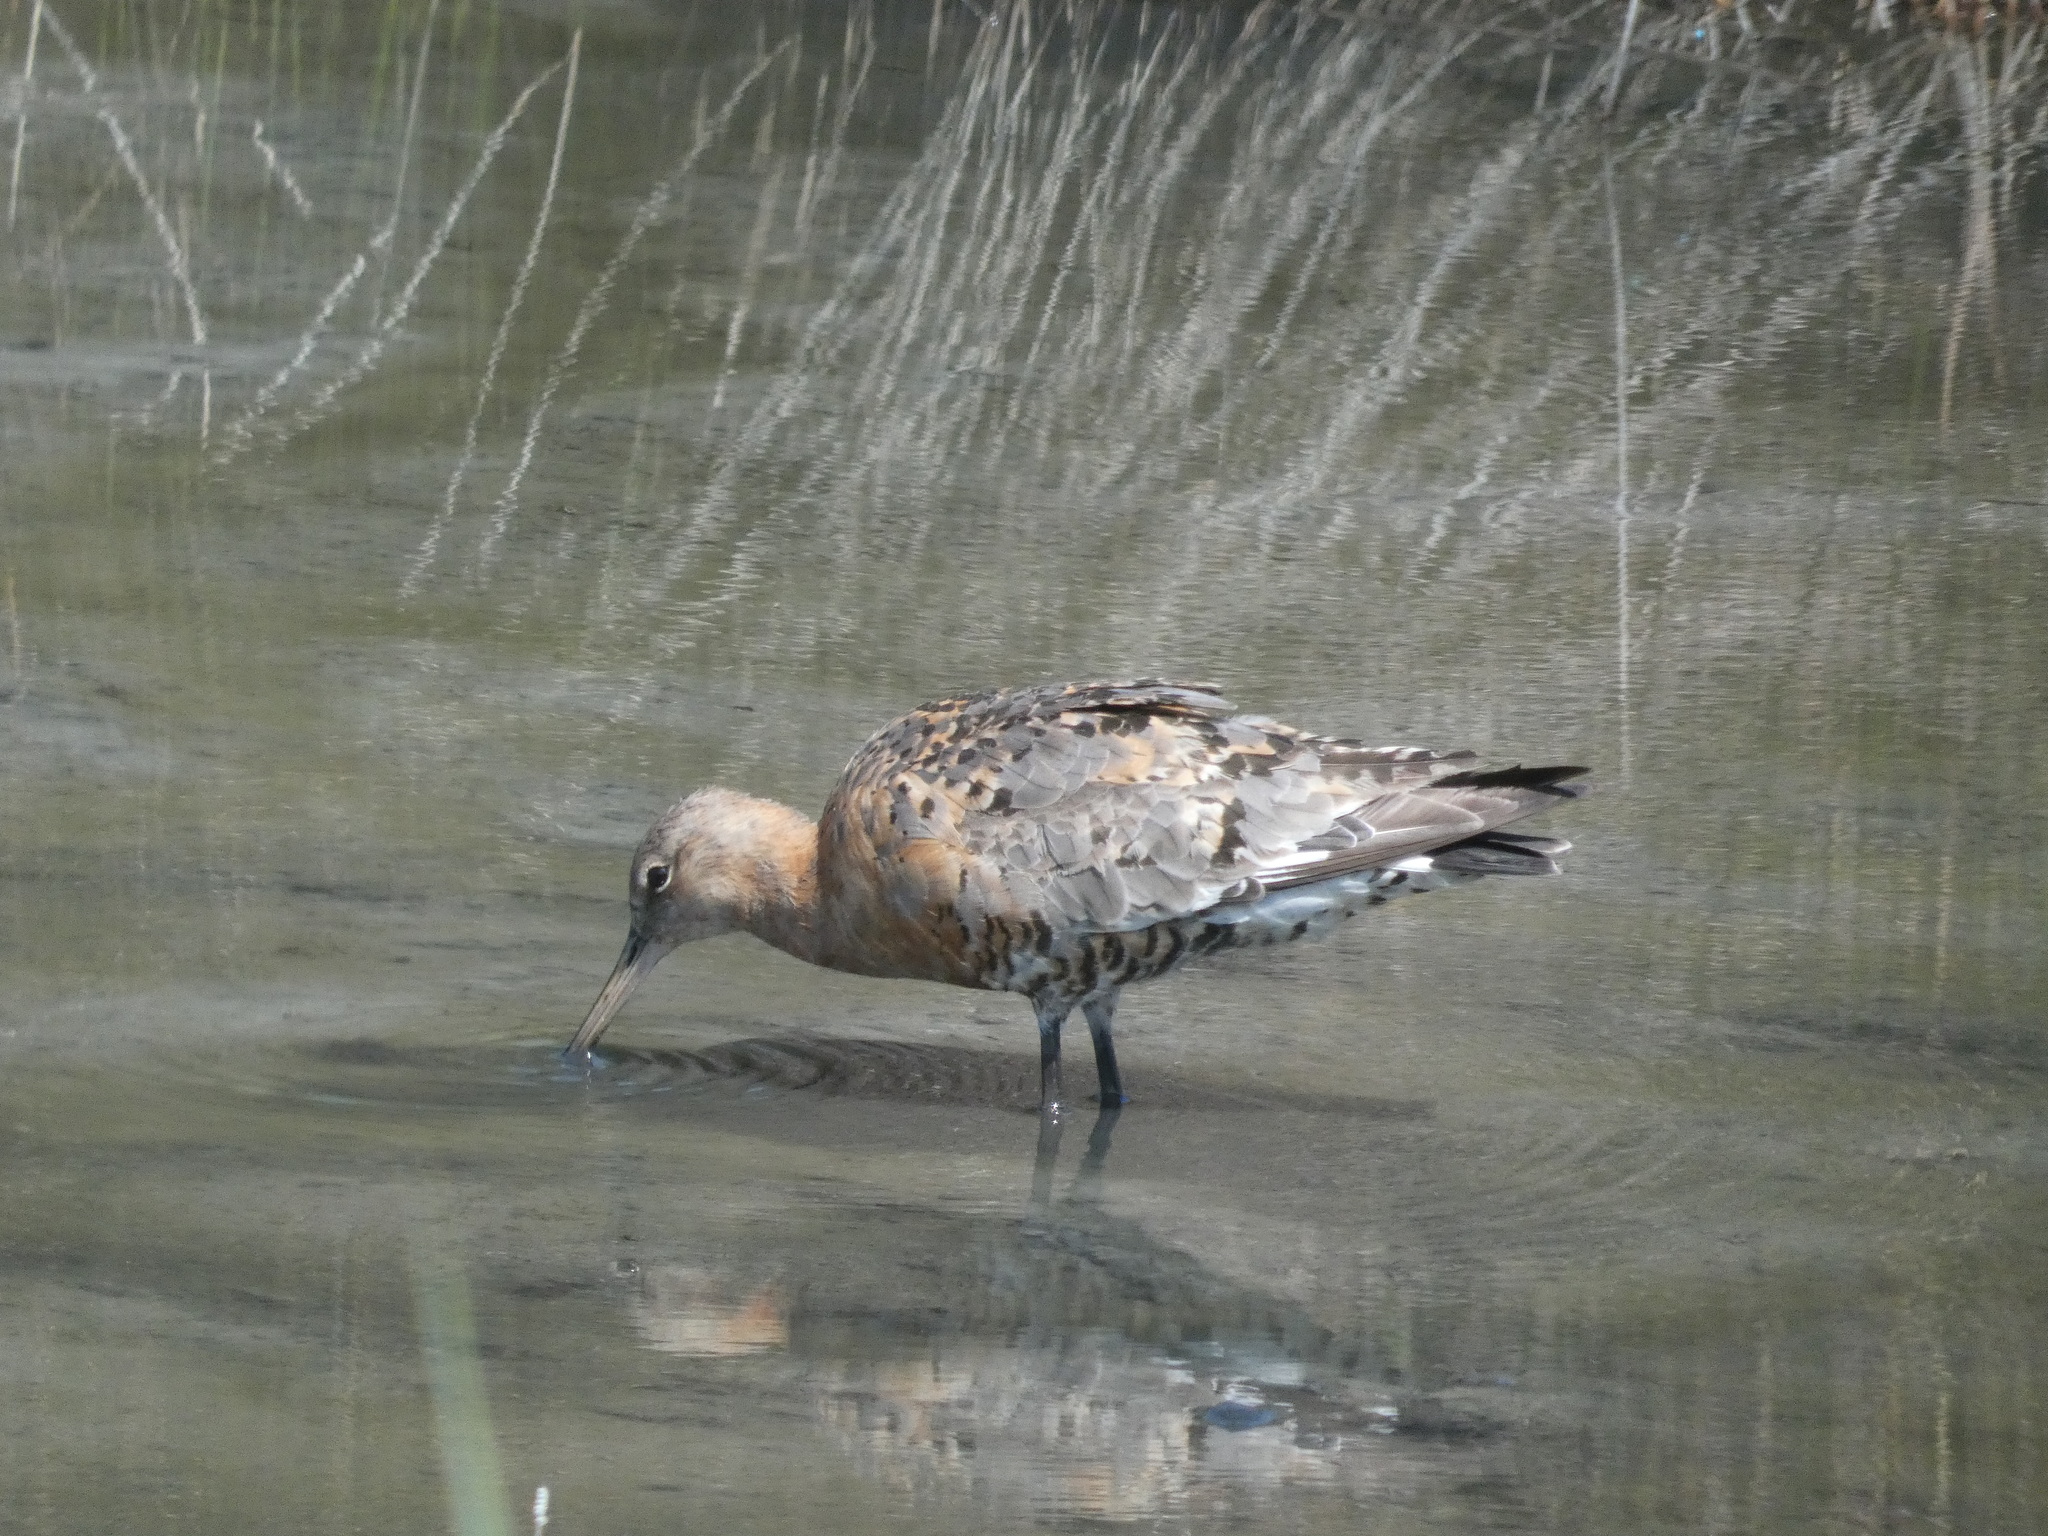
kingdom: Animalia
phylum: Chordata
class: Aves
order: Charadriiformes
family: Scolopacidae
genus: Limosa
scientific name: Limosa limosa
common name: Black-tailed godwit
